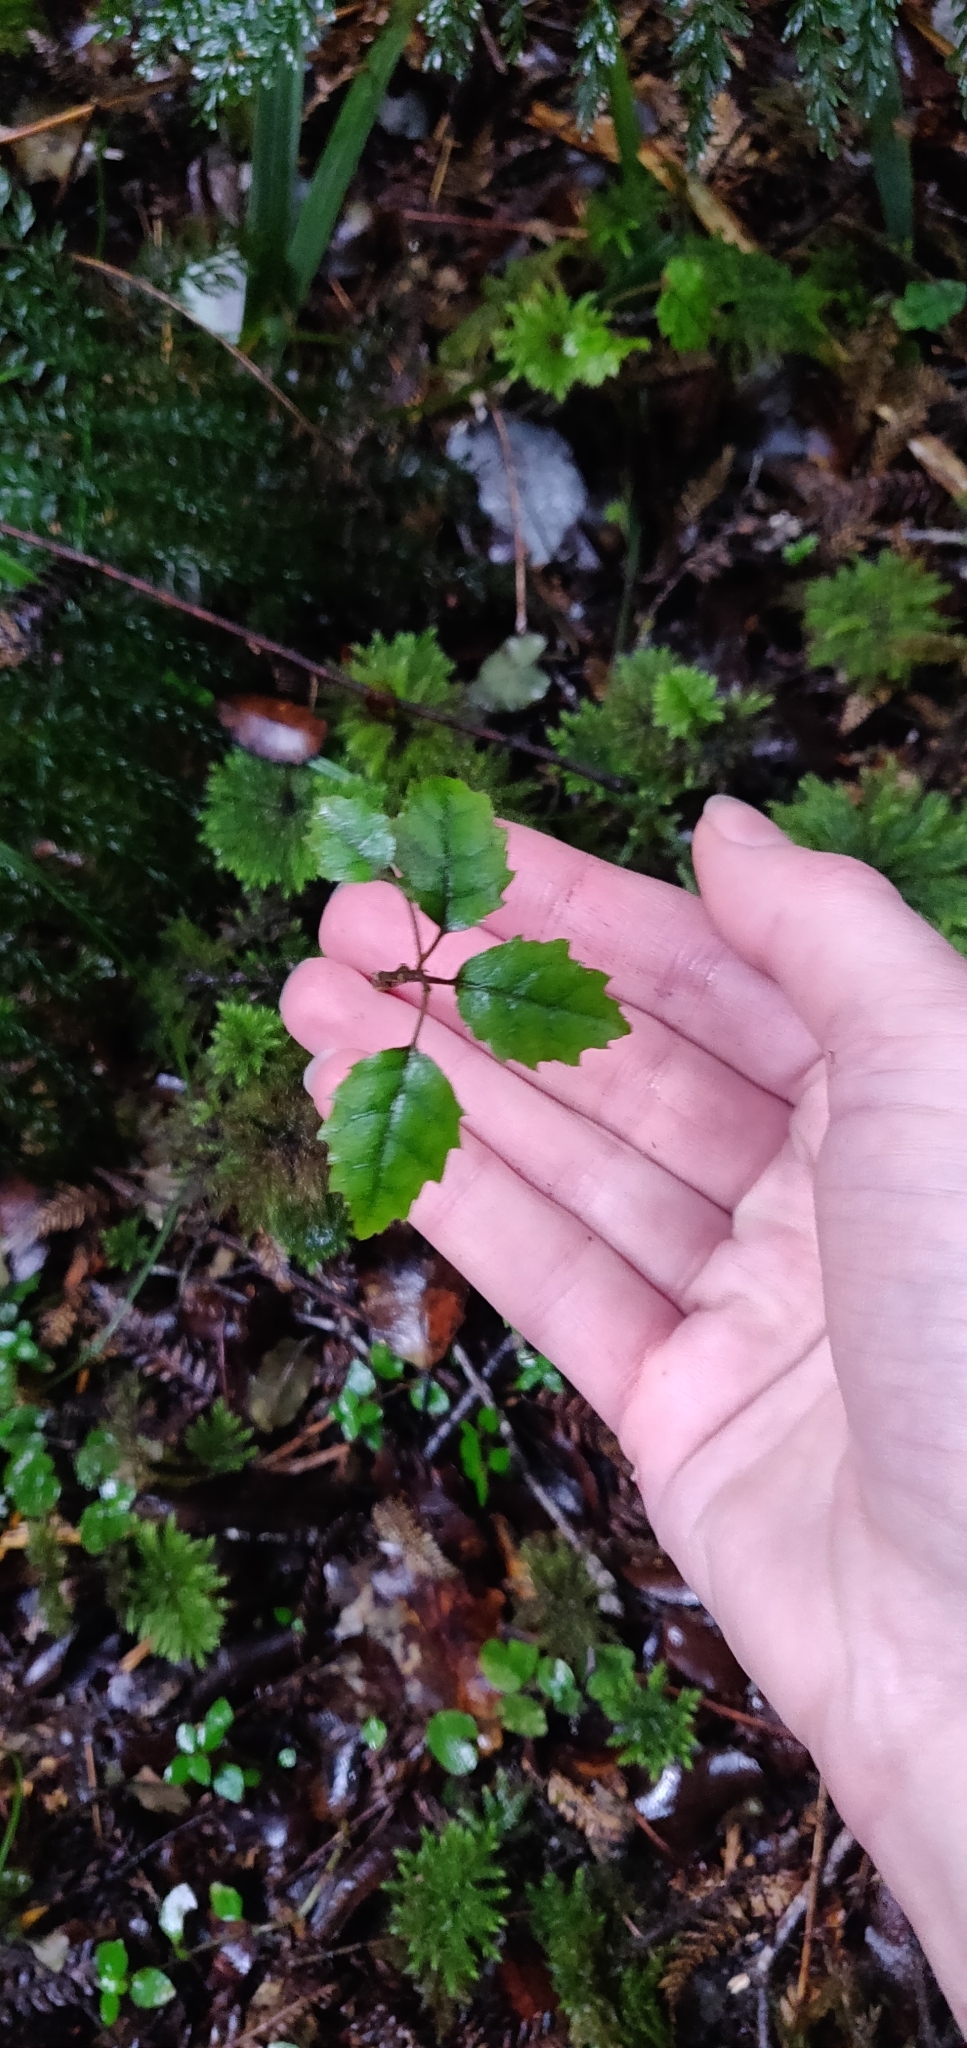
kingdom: Plantae
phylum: Tracheophyta
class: Magnoliopsida
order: Rosales
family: Rosaceae
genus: Rubus
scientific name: Rubus australis
